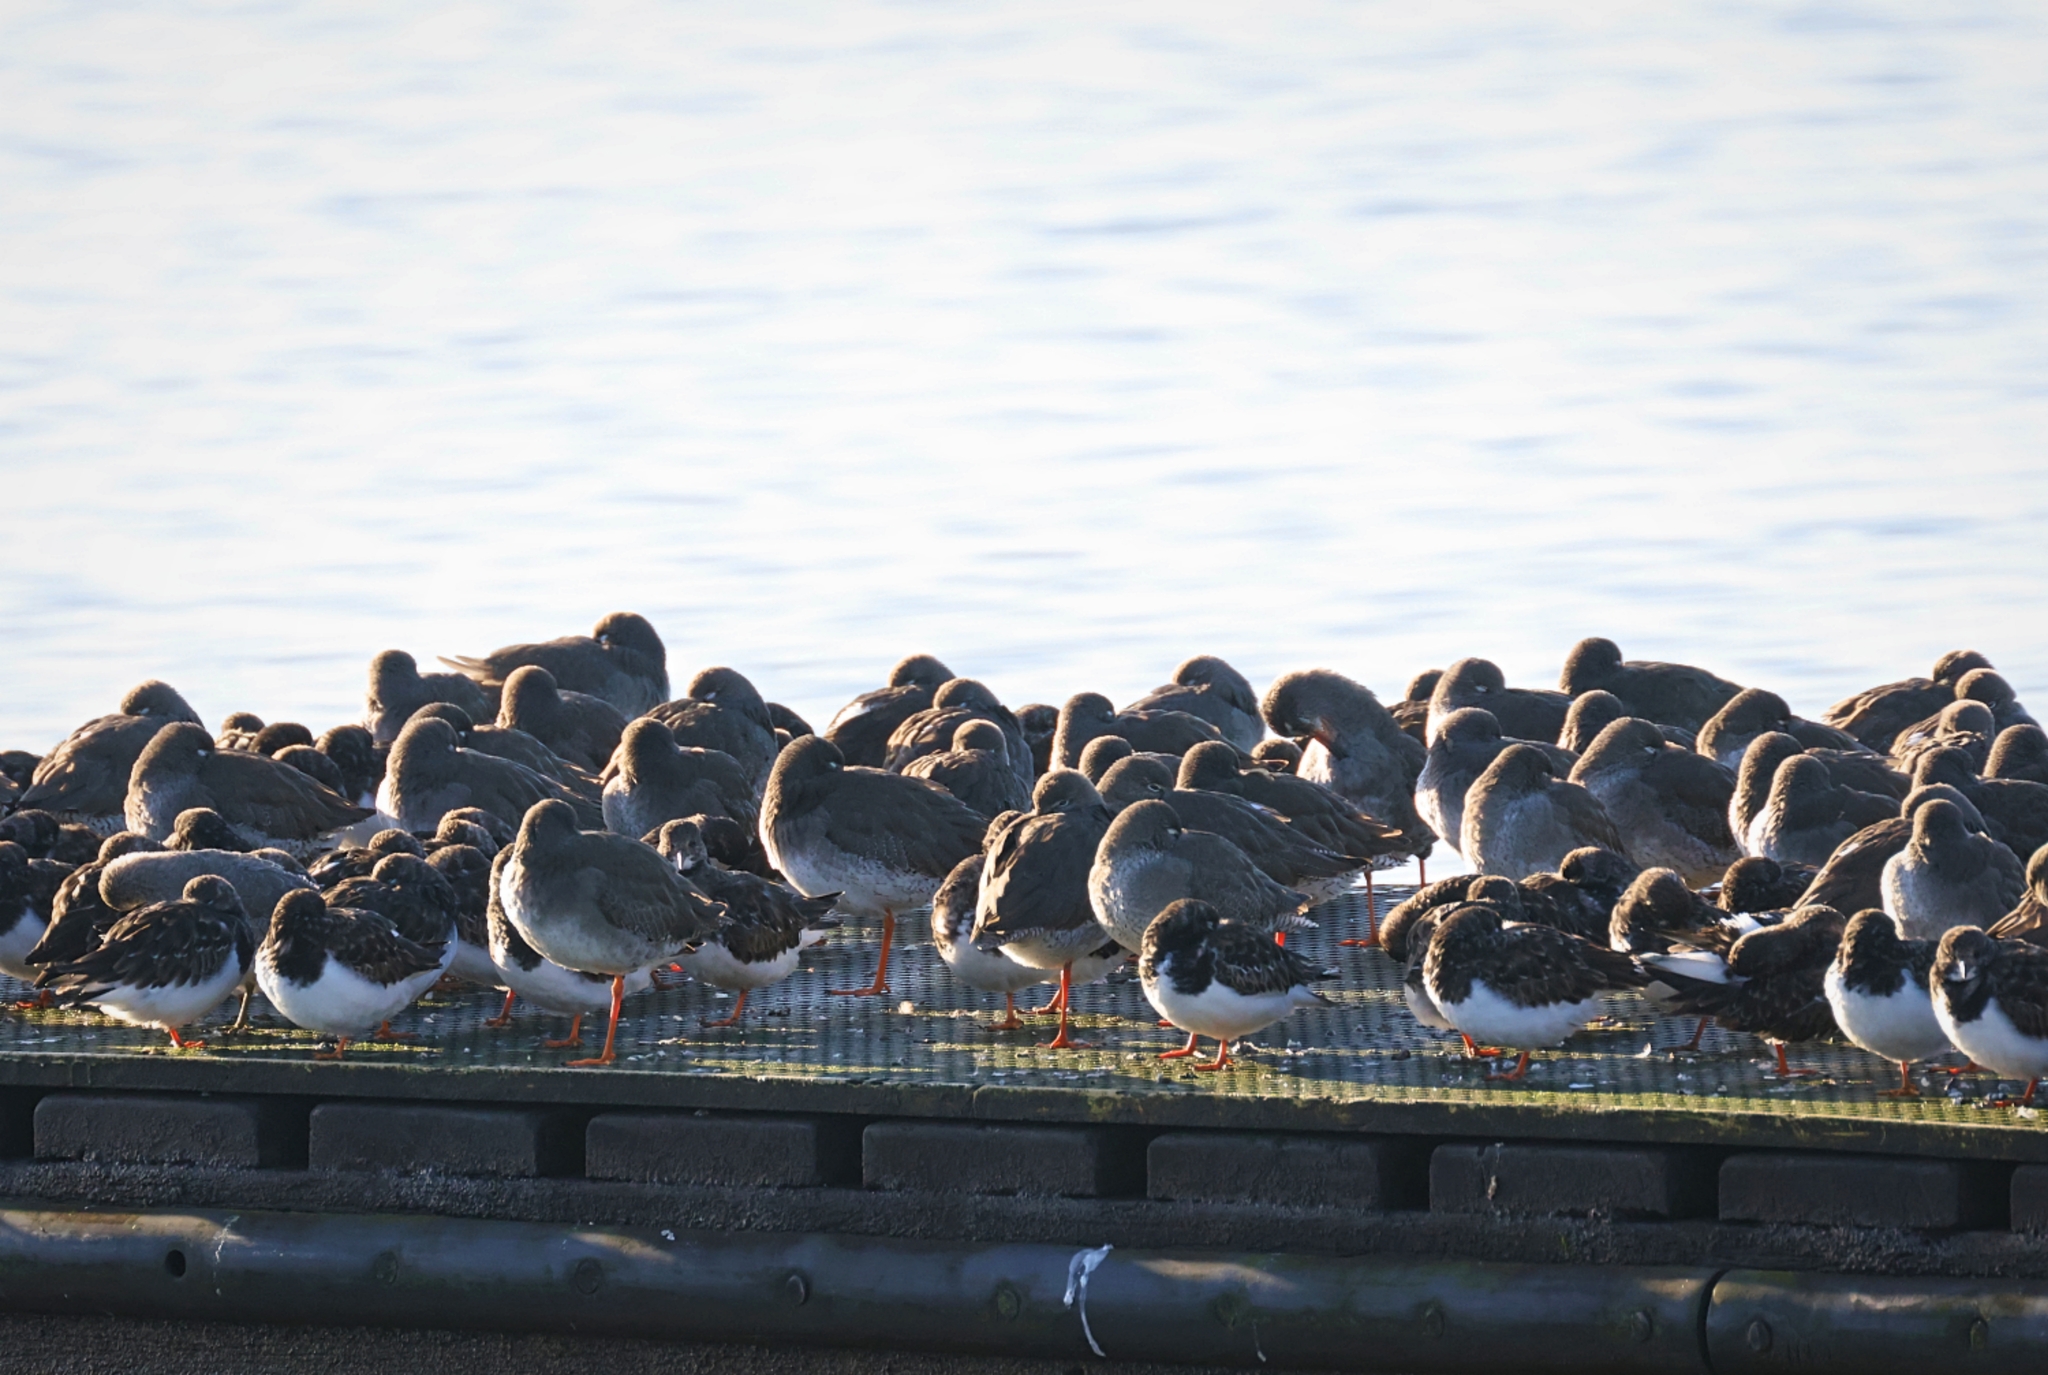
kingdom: Animalia
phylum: Chordata
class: Aves
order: Charadriiformes
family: Scolopacidae
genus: Arenaria
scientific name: Arenaria interpres
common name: Ruddy turnstone
